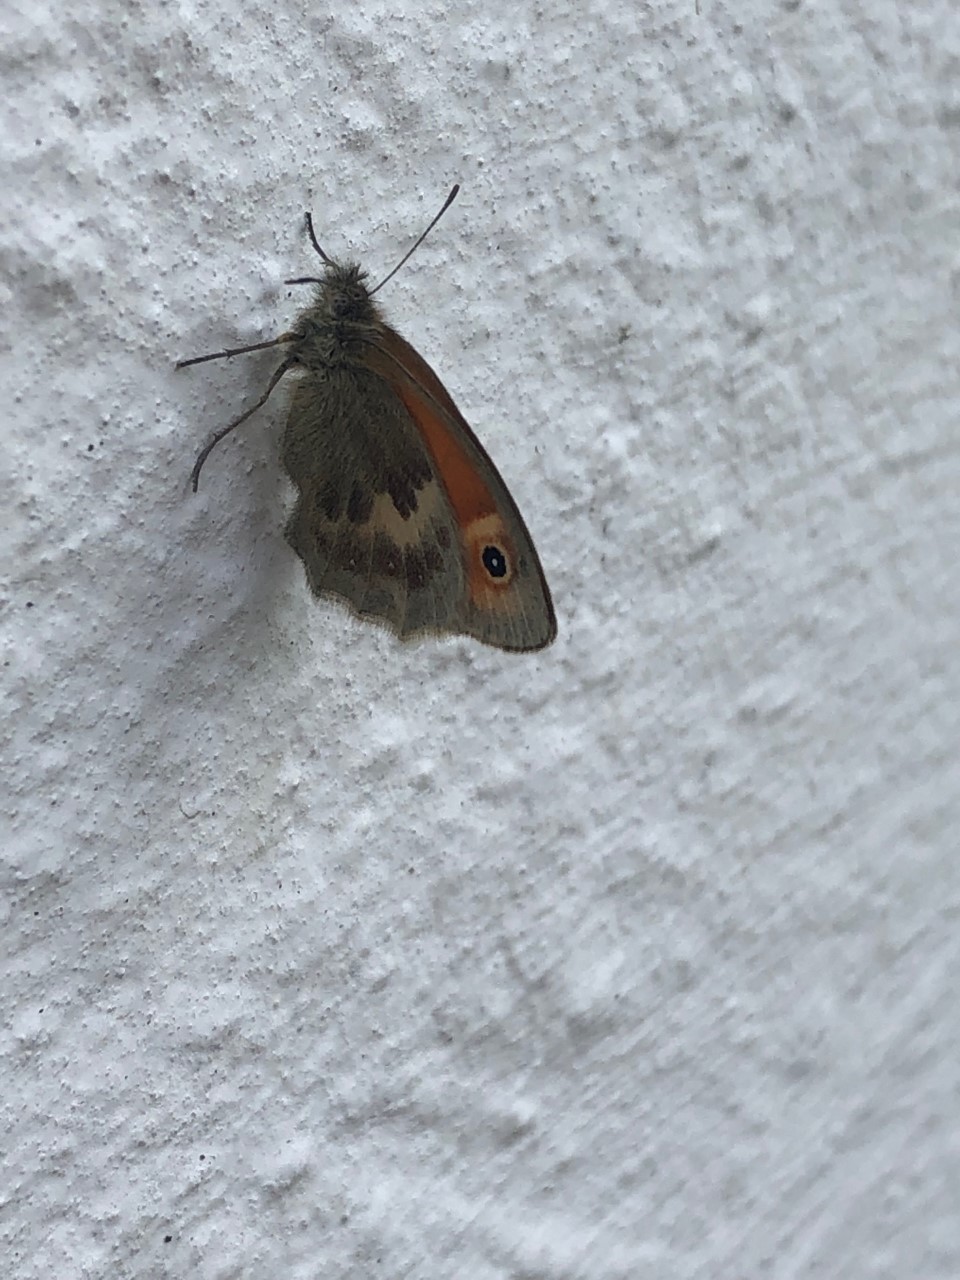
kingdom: Animalia
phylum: Arthropoda
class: Insecta
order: Lepidoptera
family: Nymphalidae
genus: Coenonympha
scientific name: Coenonympha pamphilus
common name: Small heath
